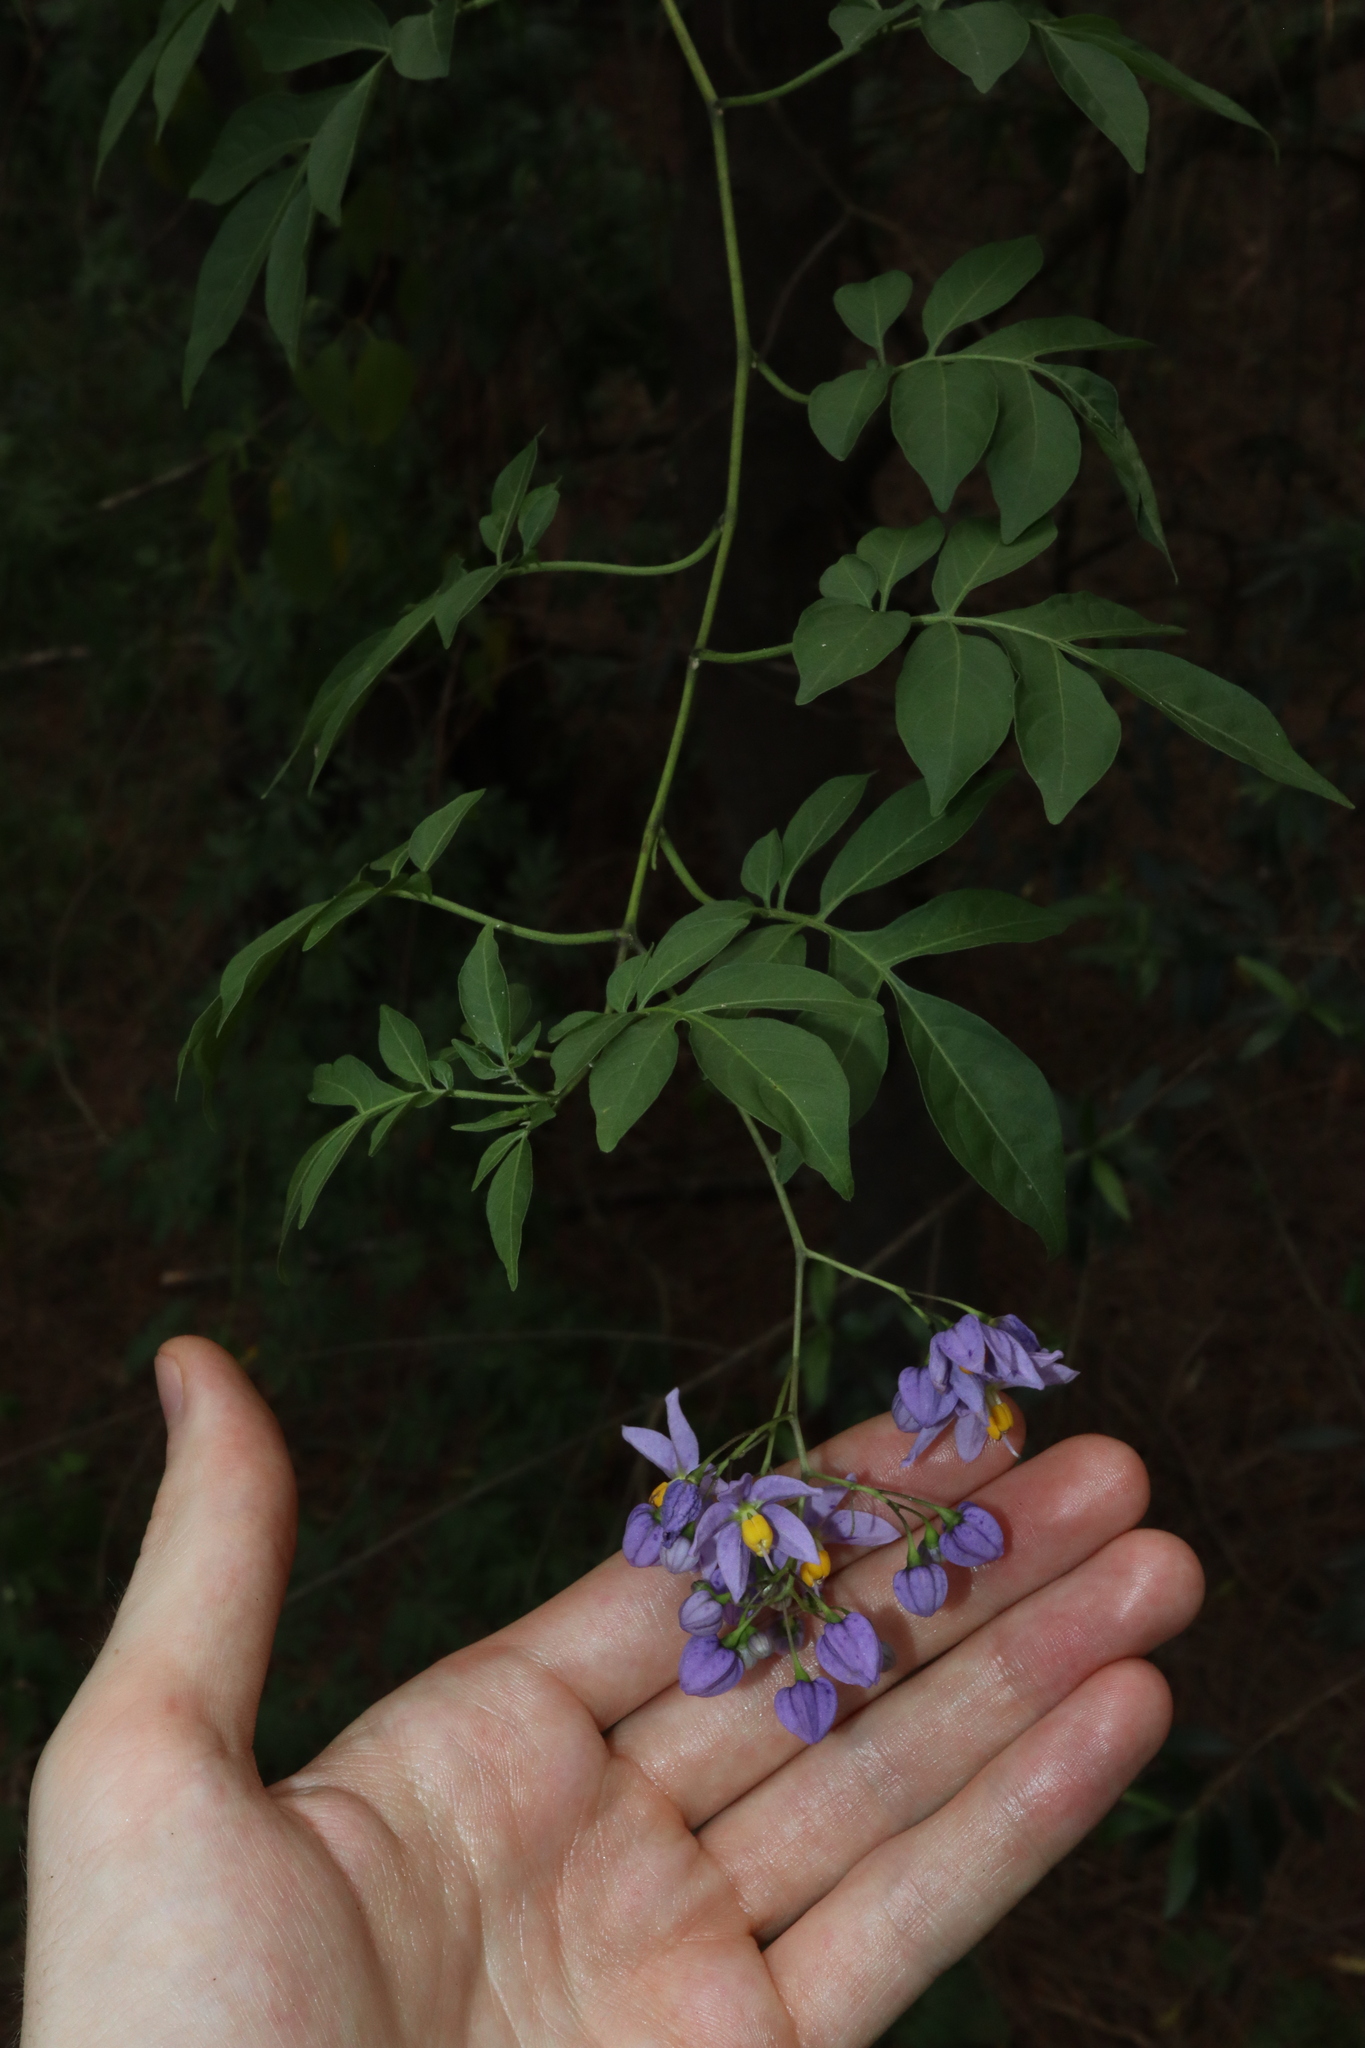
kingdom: Plantae
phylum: Tracheophyta
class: Magnoliopsida
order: Solanales
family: Solanaceae
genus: Solanum
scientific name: Solanum seaforthianum
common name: Brazilian nightshade
